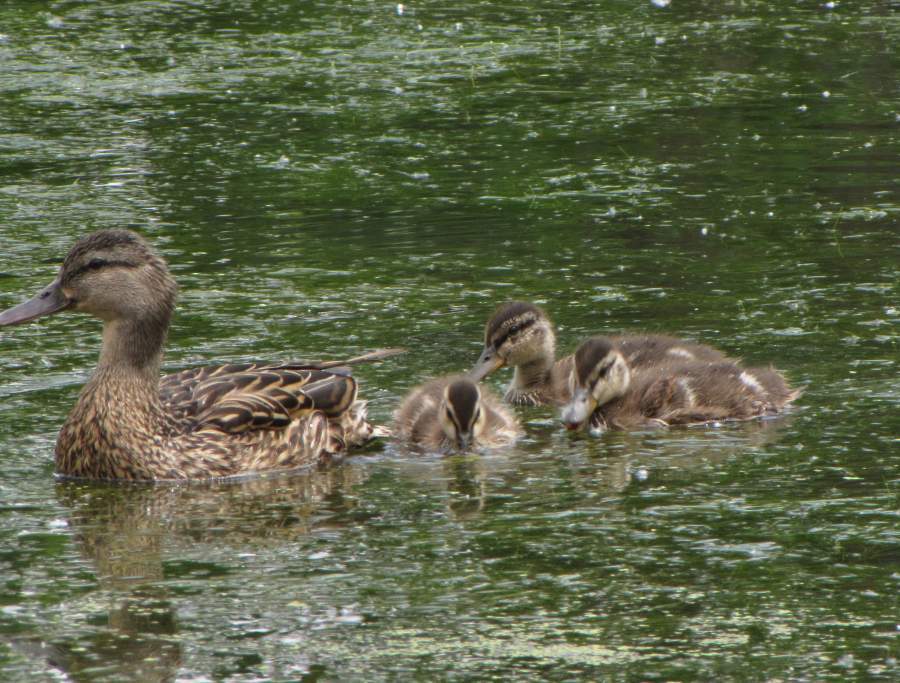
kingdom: Animalia
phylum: Chordata
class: Aves
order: Anseriformes
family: Anatidae
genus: Anas
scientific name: Anas platyrhynchos
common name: Mallard
